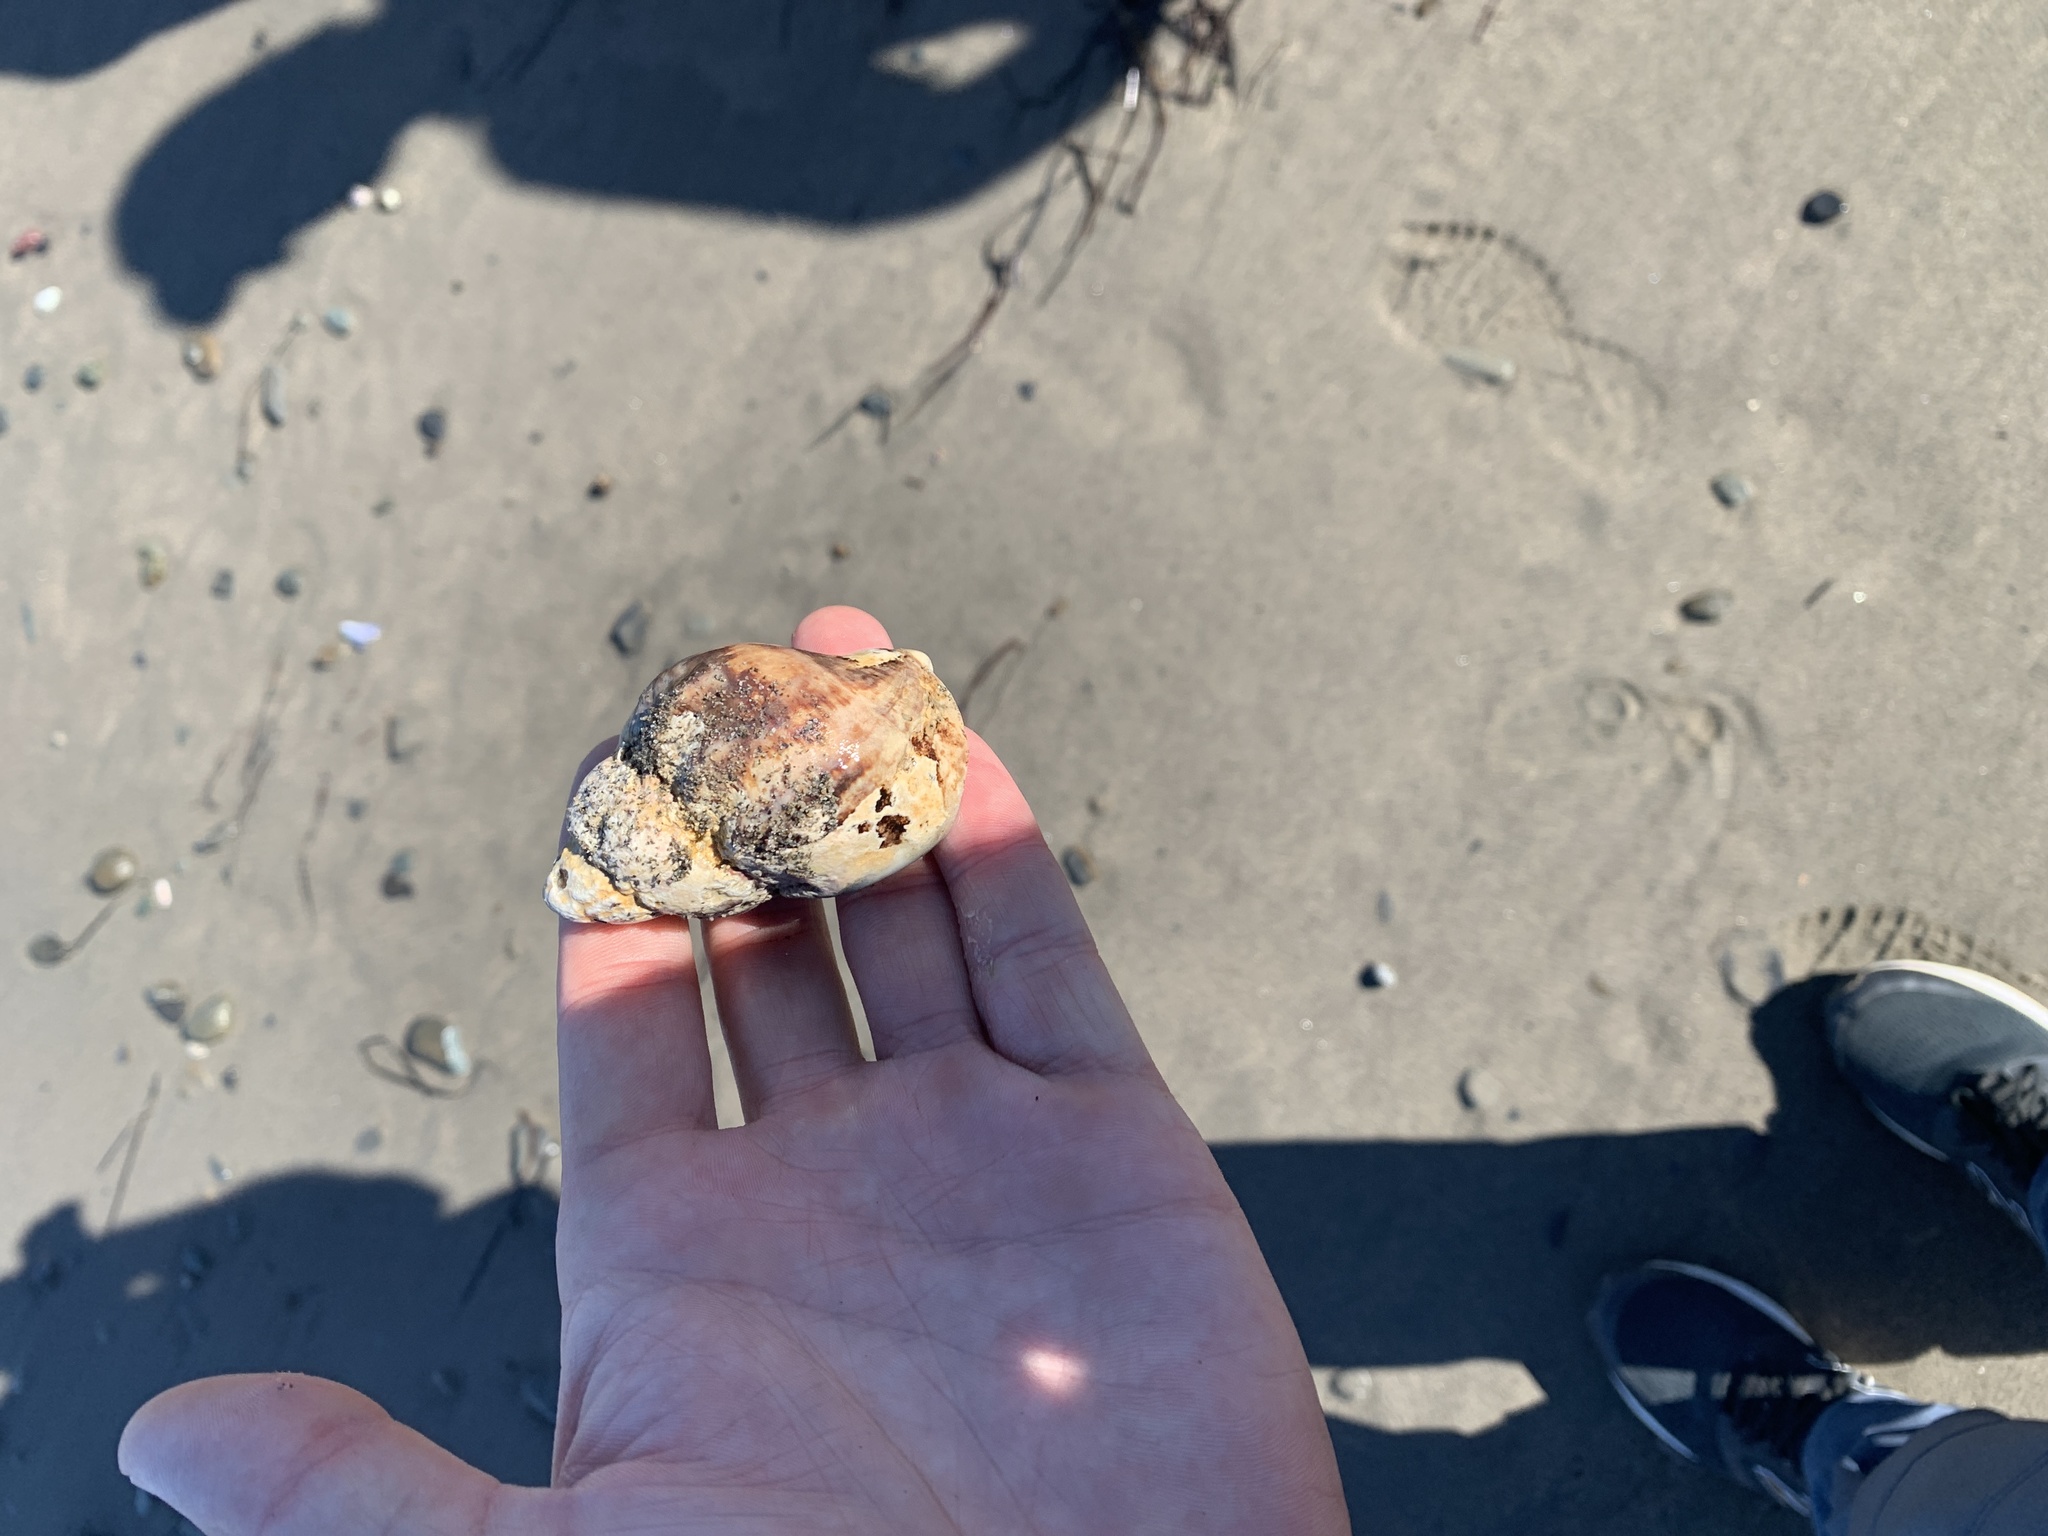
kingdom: Animalia
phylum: Mollusca
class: Gastropoda
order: Neogastropoda
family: Buccinidae
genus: Buccinum
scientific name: Buccinum undatum
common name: Common whelk
